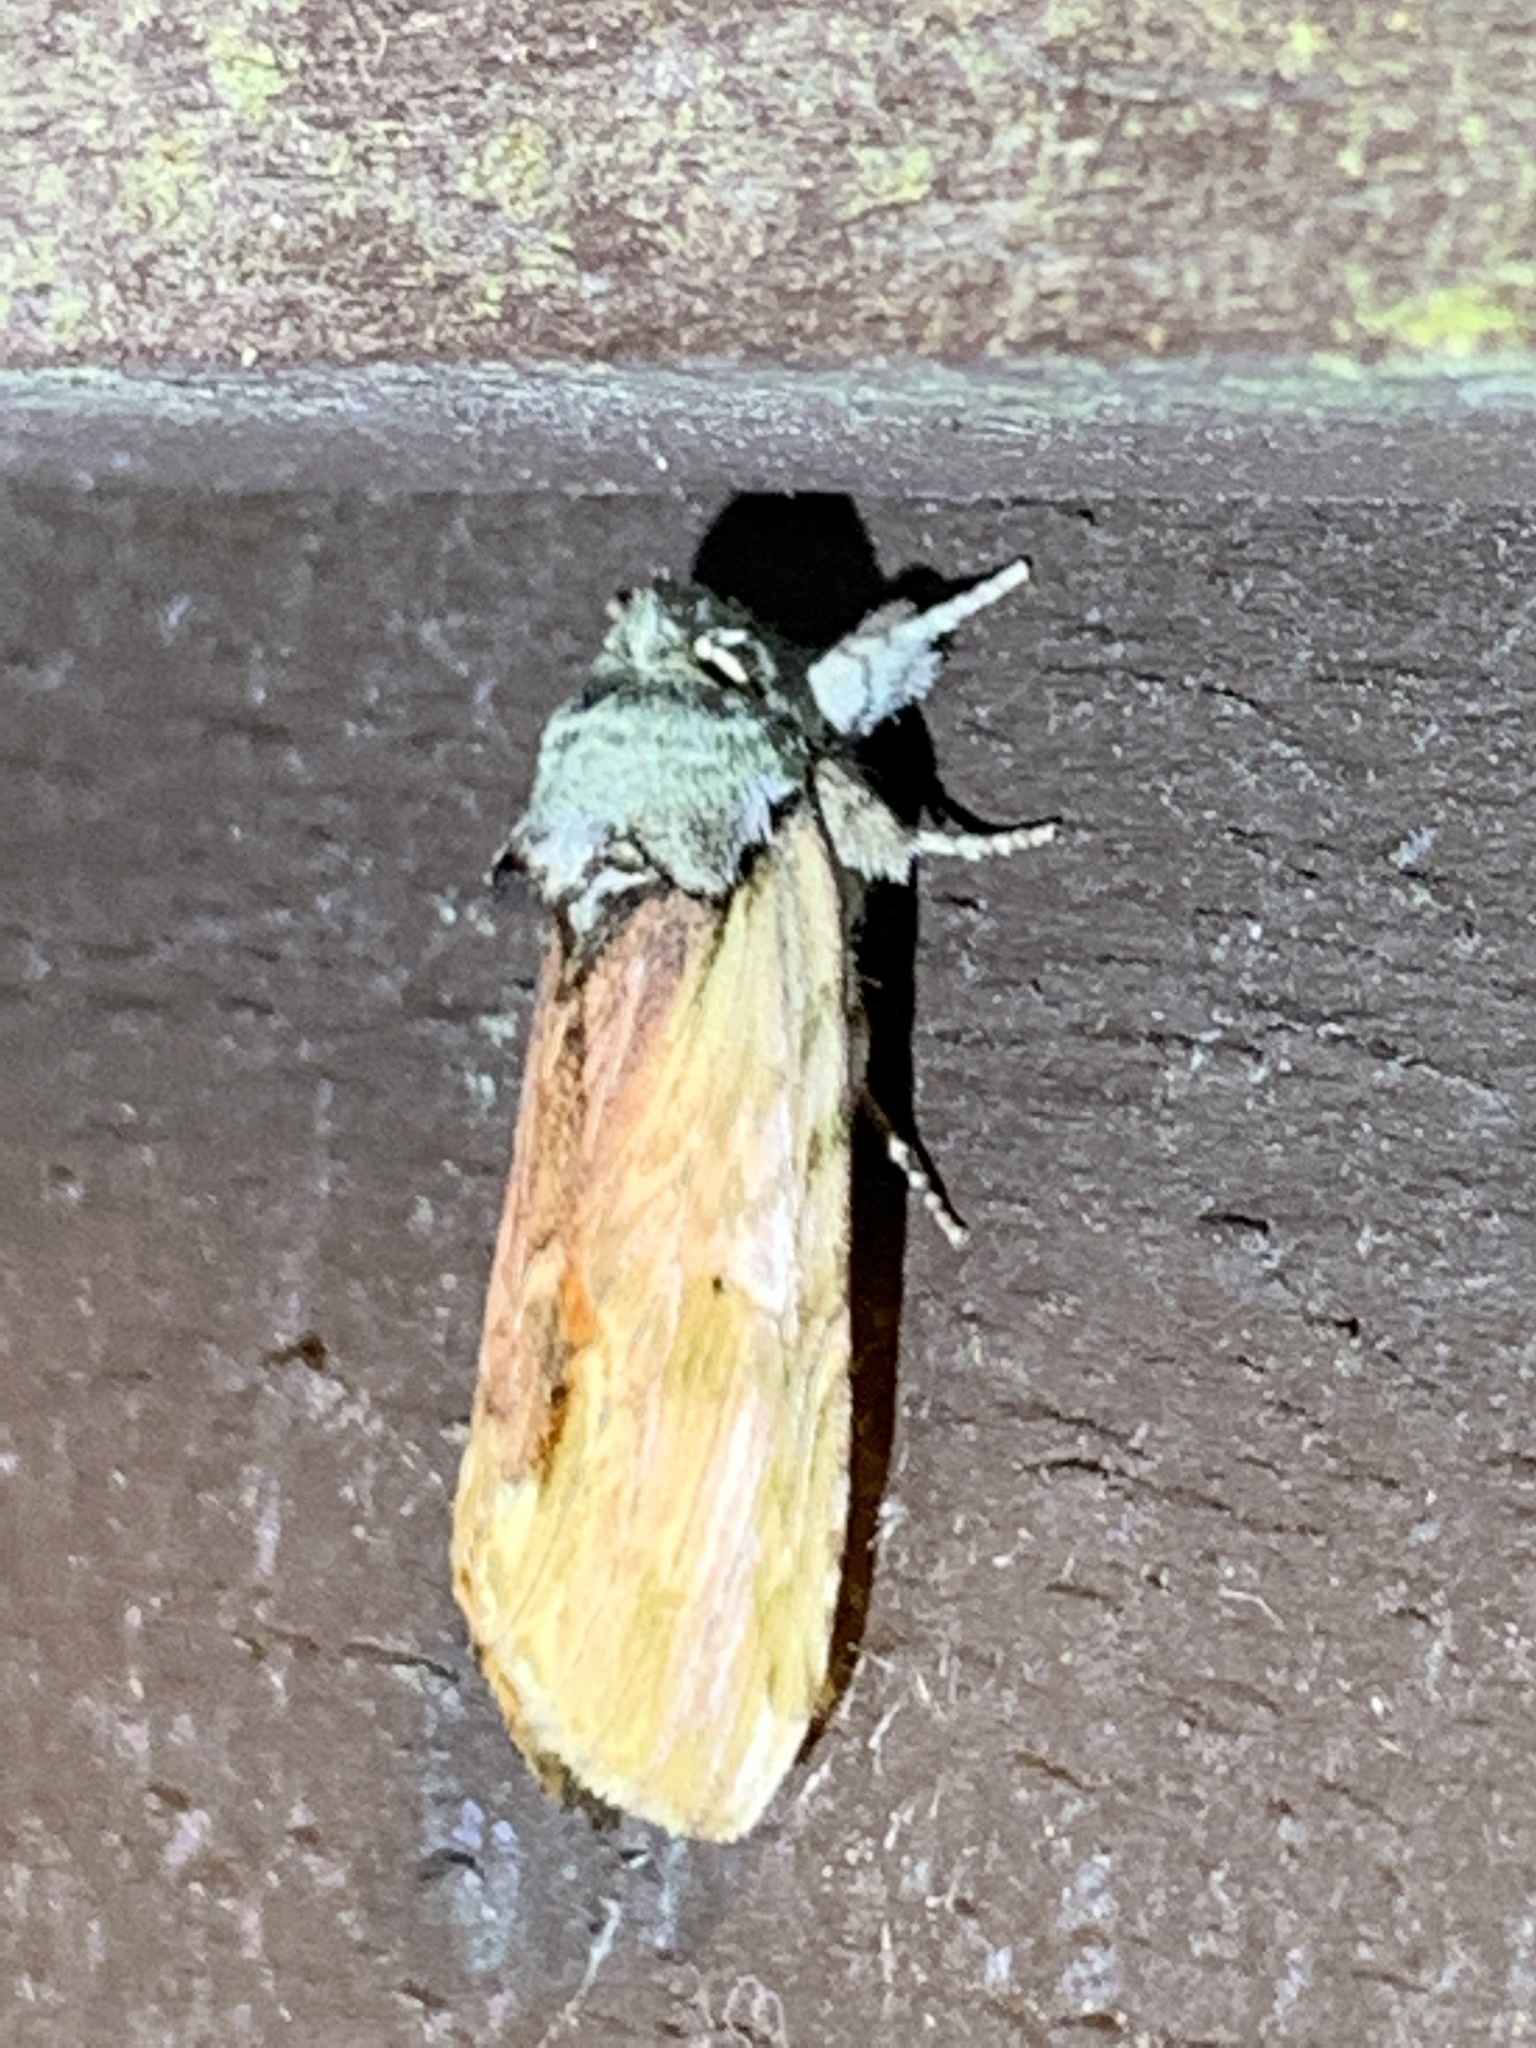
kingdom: Animalia
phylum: Arthropoda
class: Insecta
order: Lepidoptera
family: Notodontidae
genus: Schizura
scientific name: Schizura
